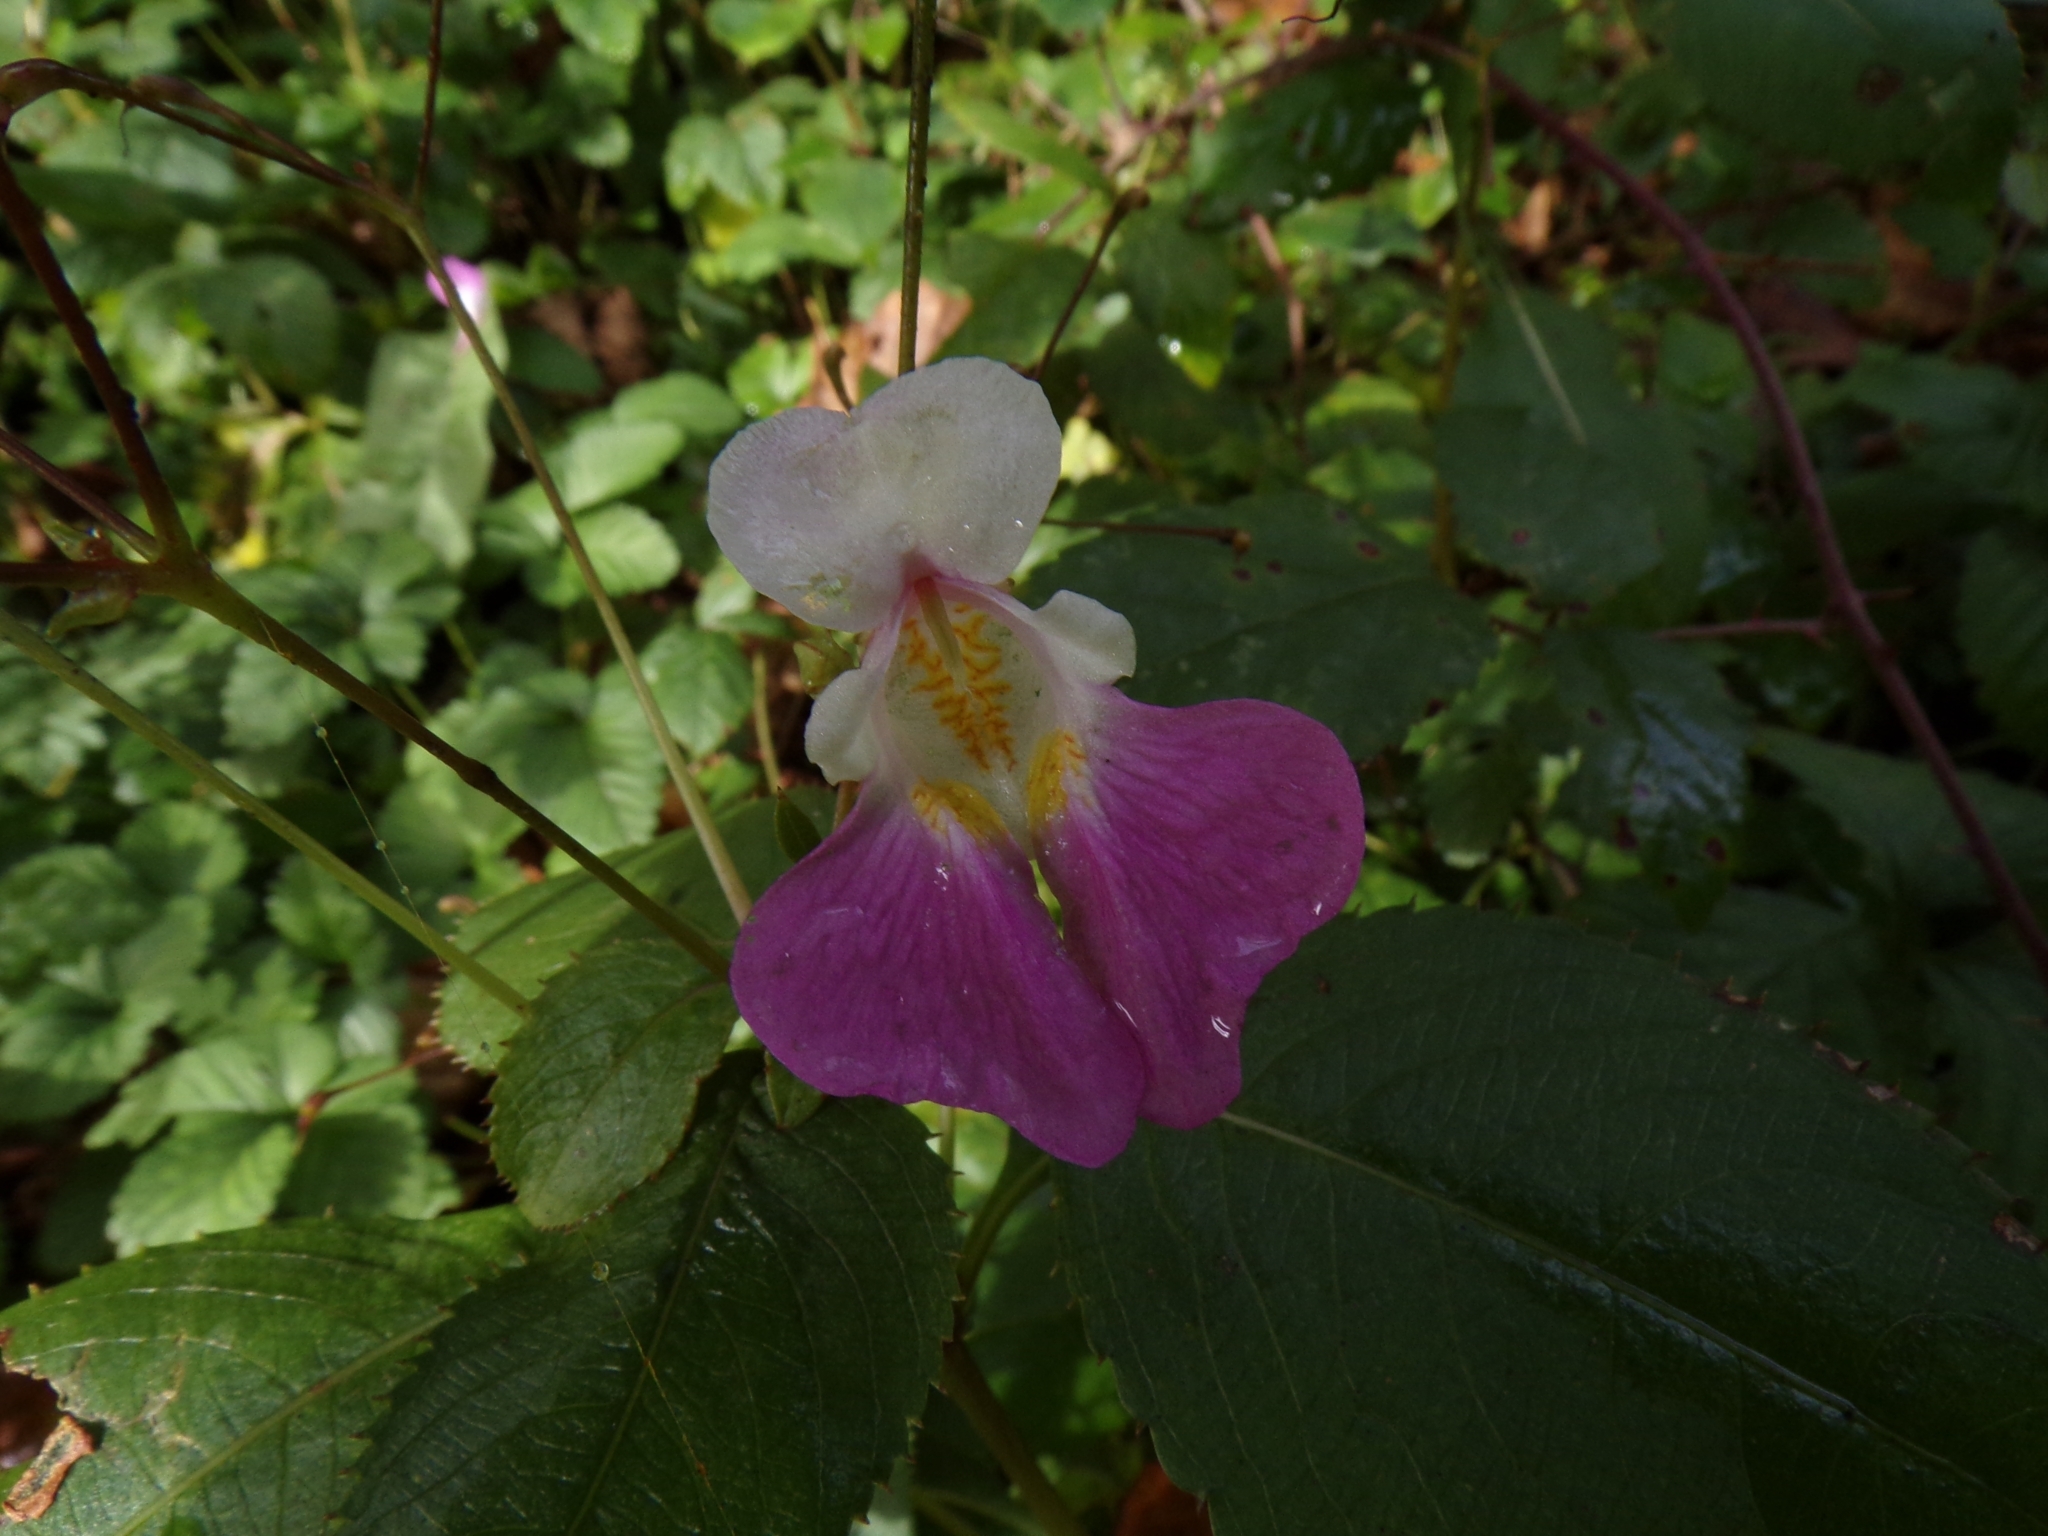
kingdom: Plantae
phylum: Tracheophyta
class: Magnoliopsida
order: Ericales
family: Balsaminaceae
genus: Impatiens
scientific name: Impatiens balfourii
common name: Balfour's touch-me-not
